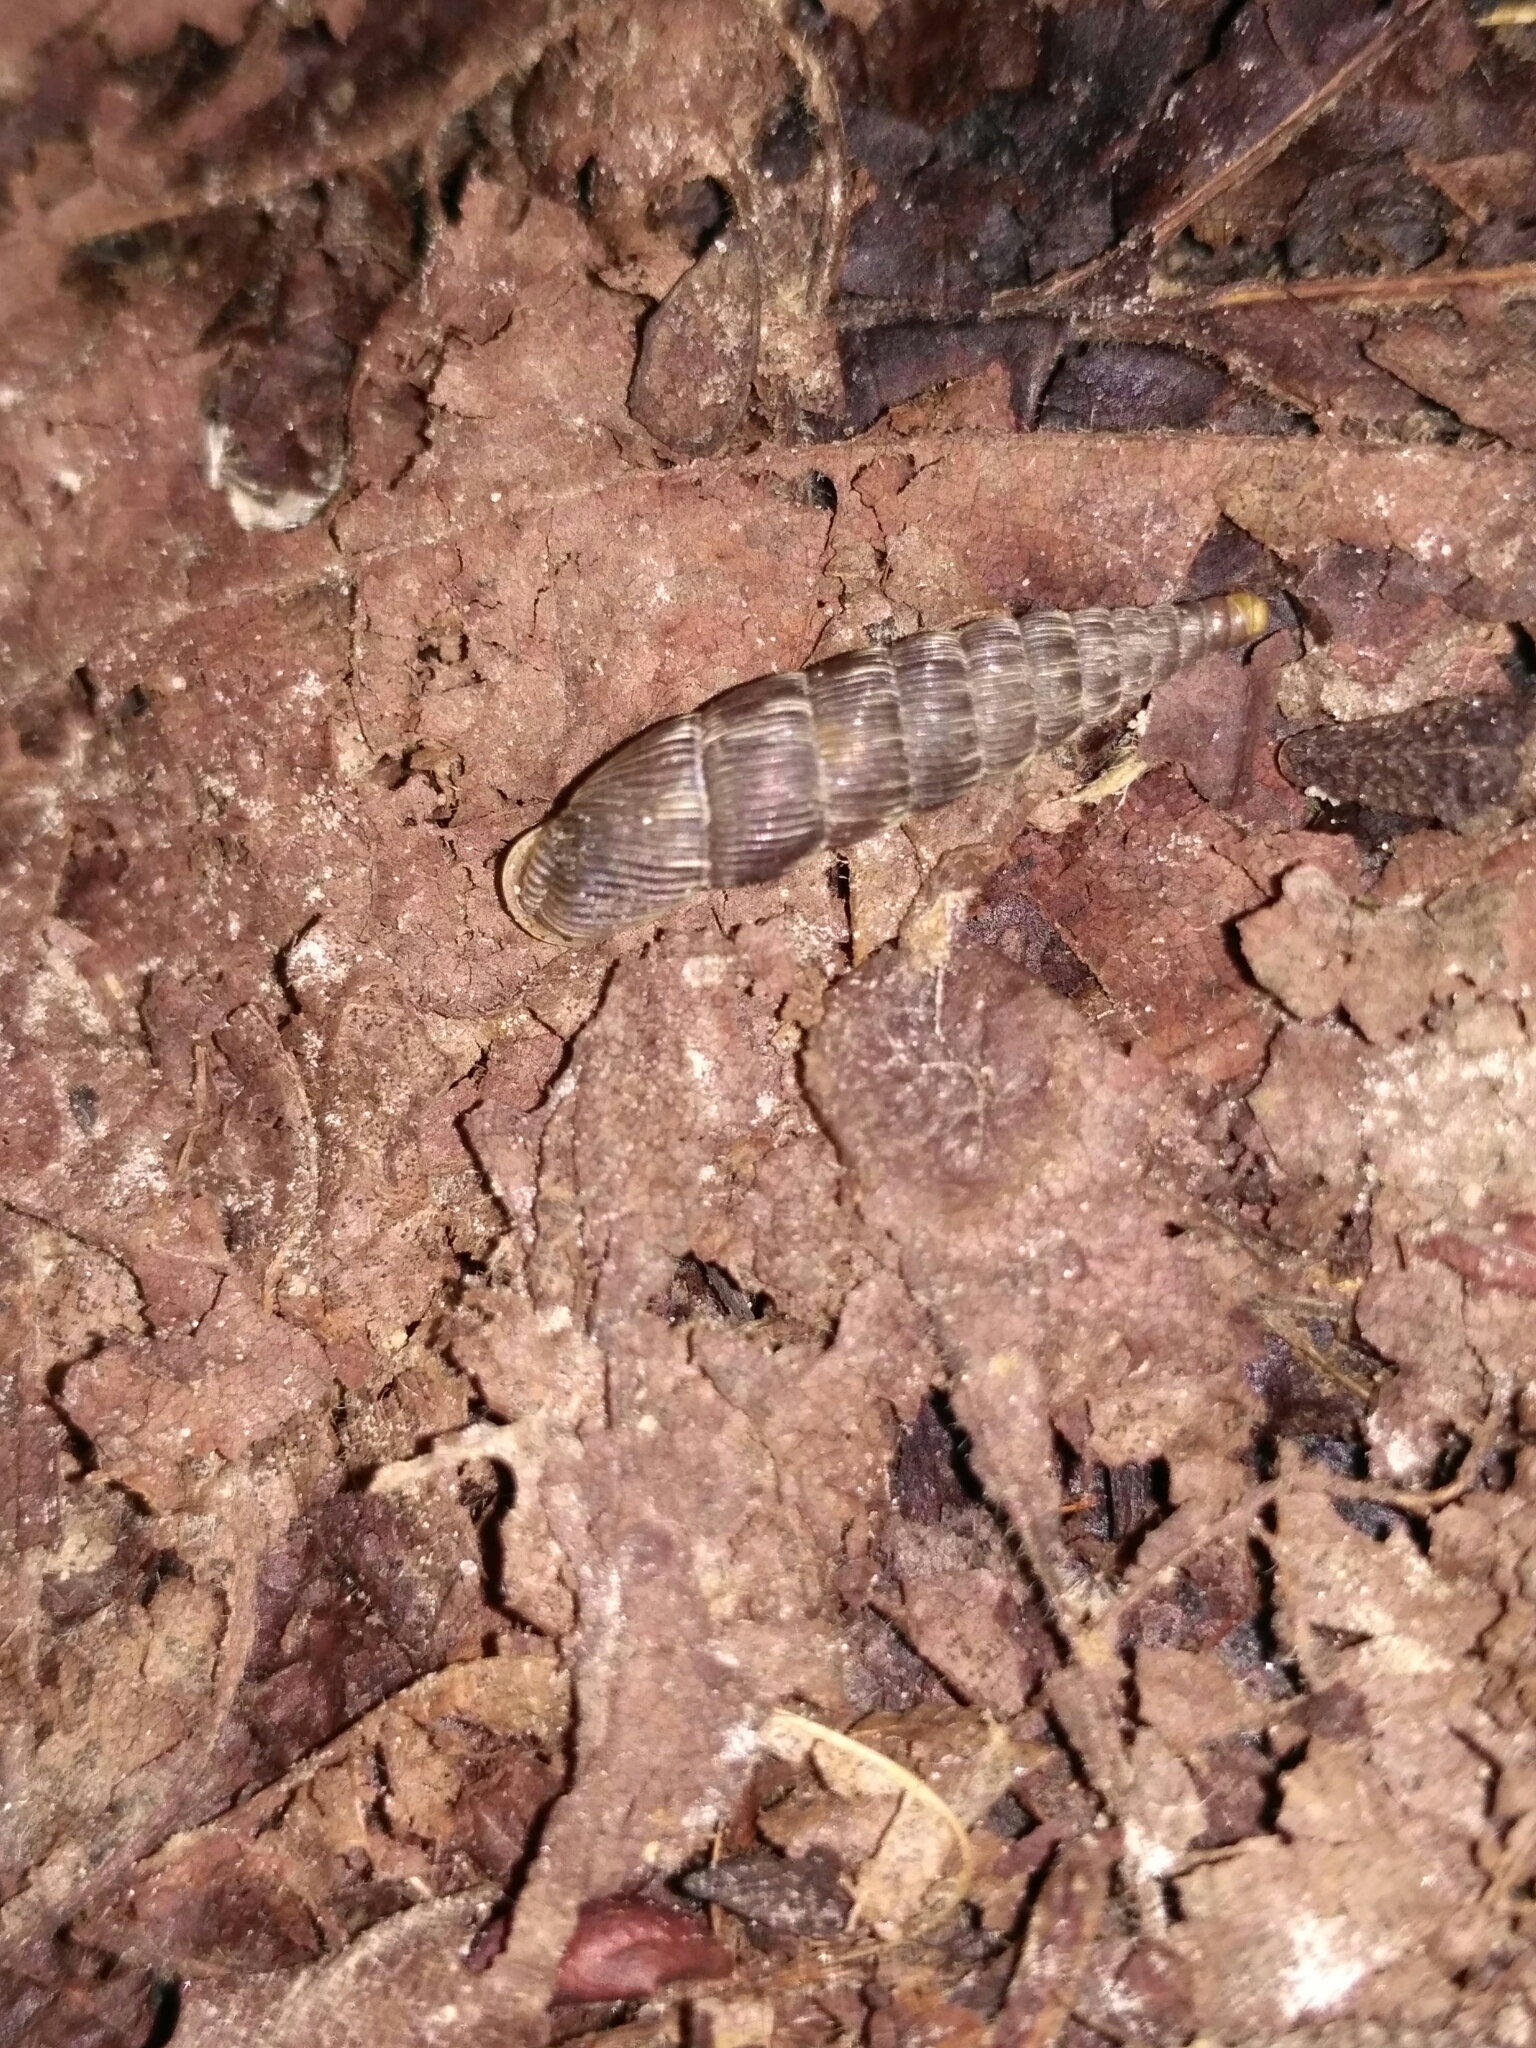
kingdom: Animalia
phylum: Mollusca
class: Gastropoda
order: Stylommatophora
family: Clausiliidae
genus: Laciniaria
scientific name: Laciniaria plicata
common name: Single-lipped door snail
